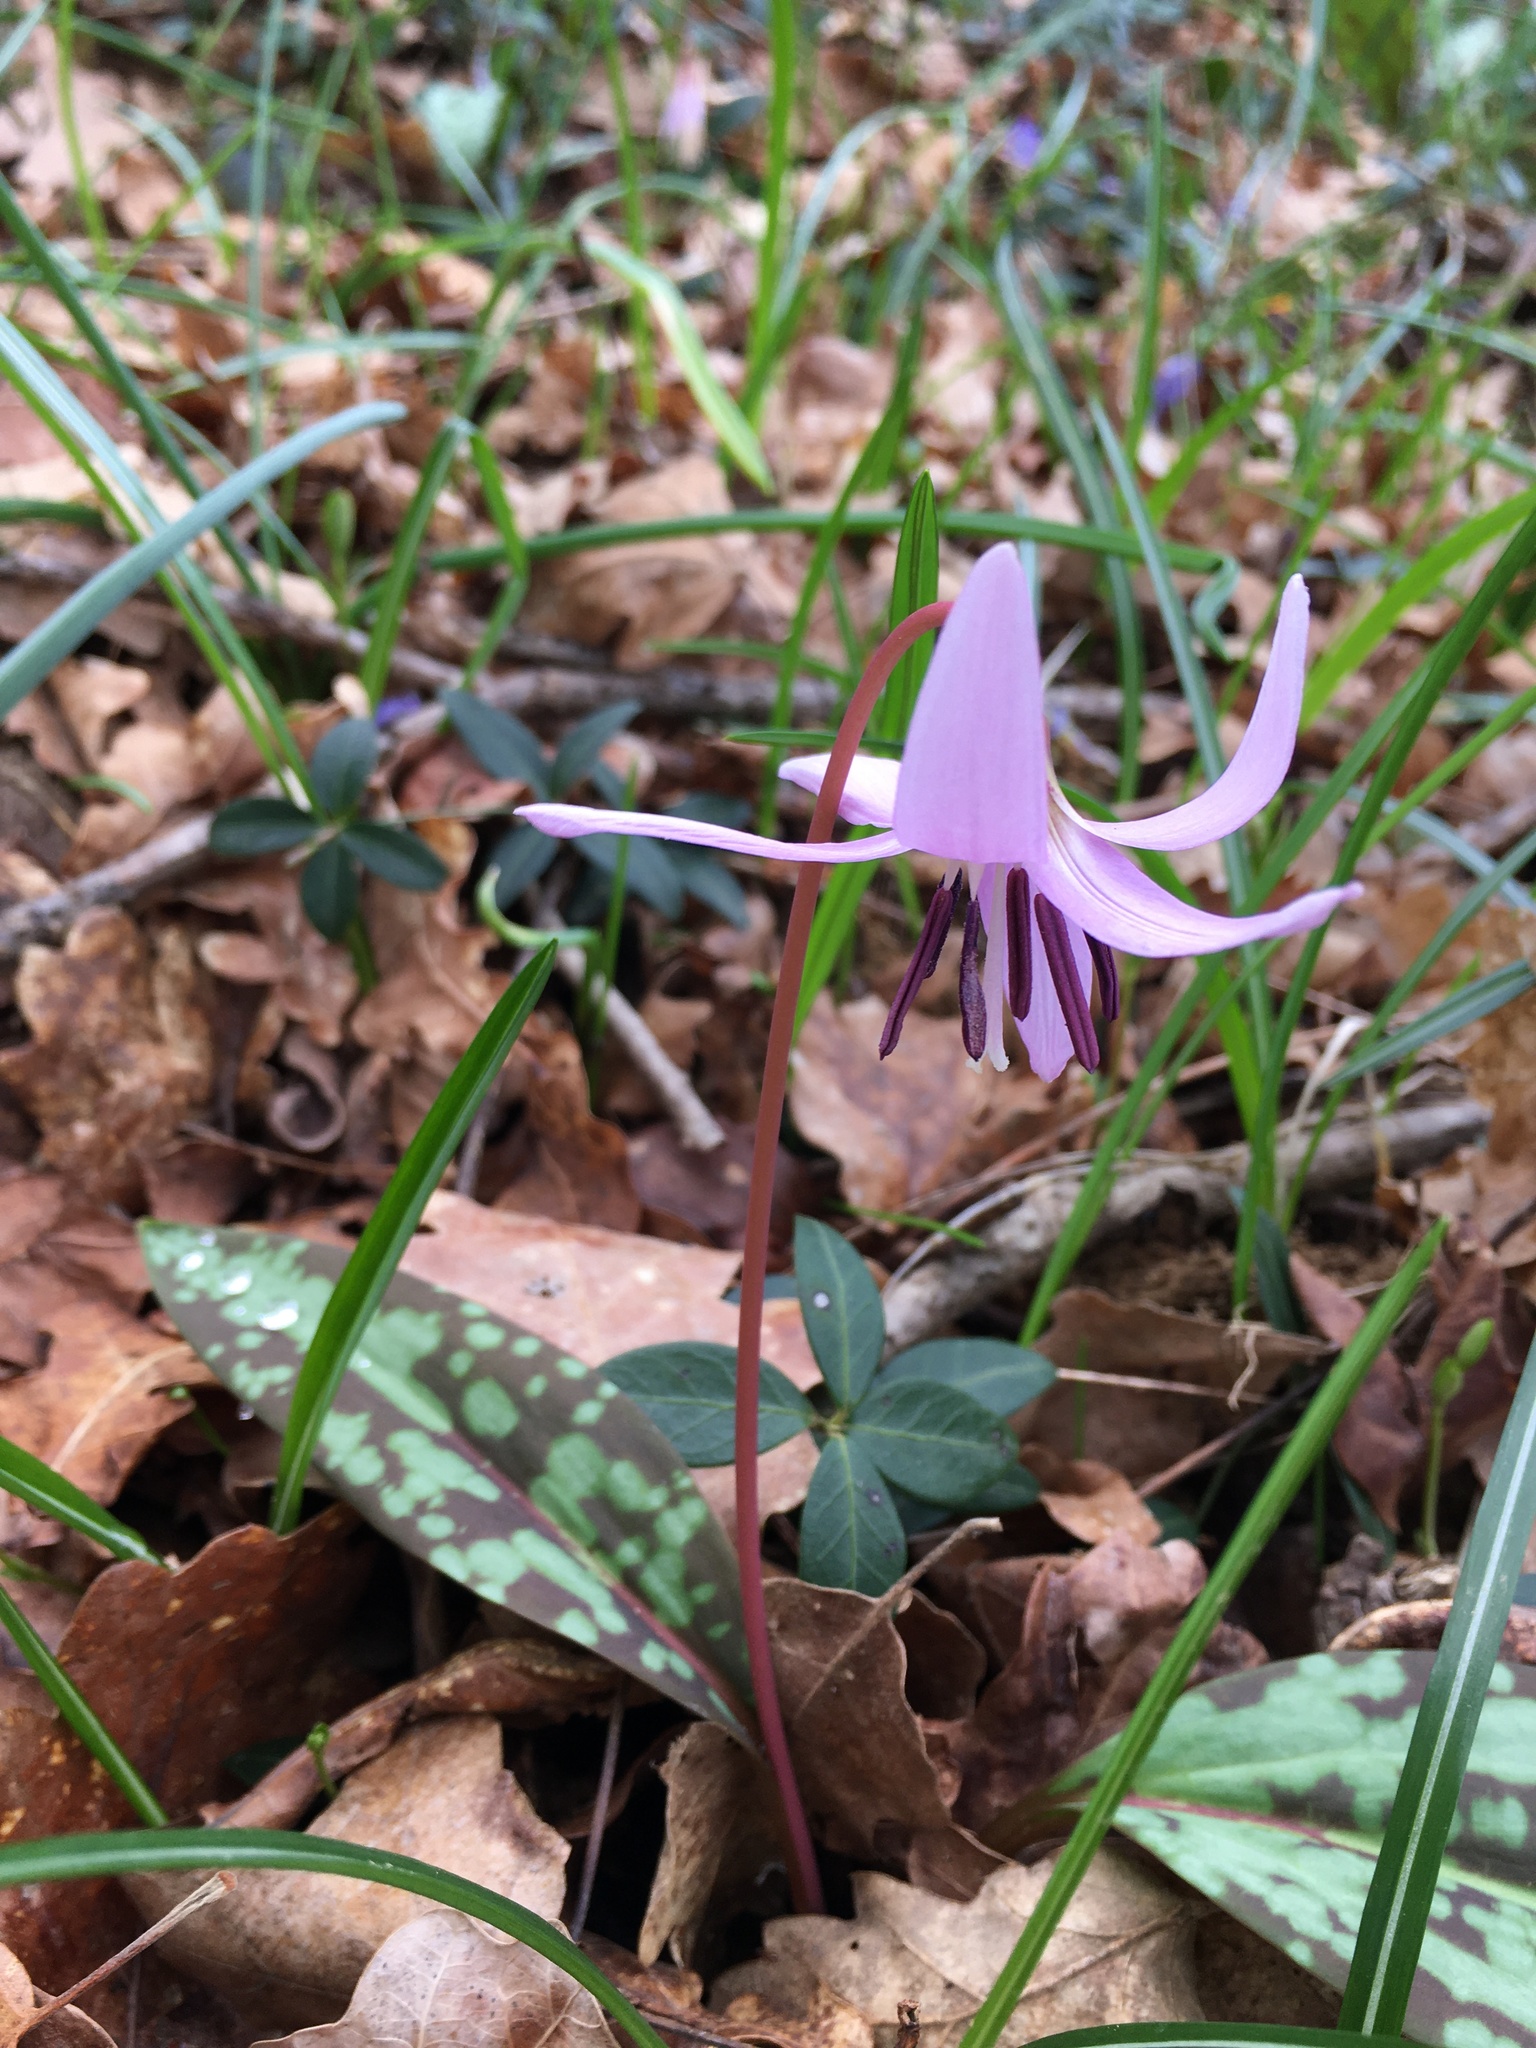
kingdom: Plantae
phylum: Tracheophyta
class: Liliopsida
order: Liliales
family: Liliaceae
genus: Erythronium
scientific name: Erythronium dens-canis
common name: Dog's-tooth-violet
